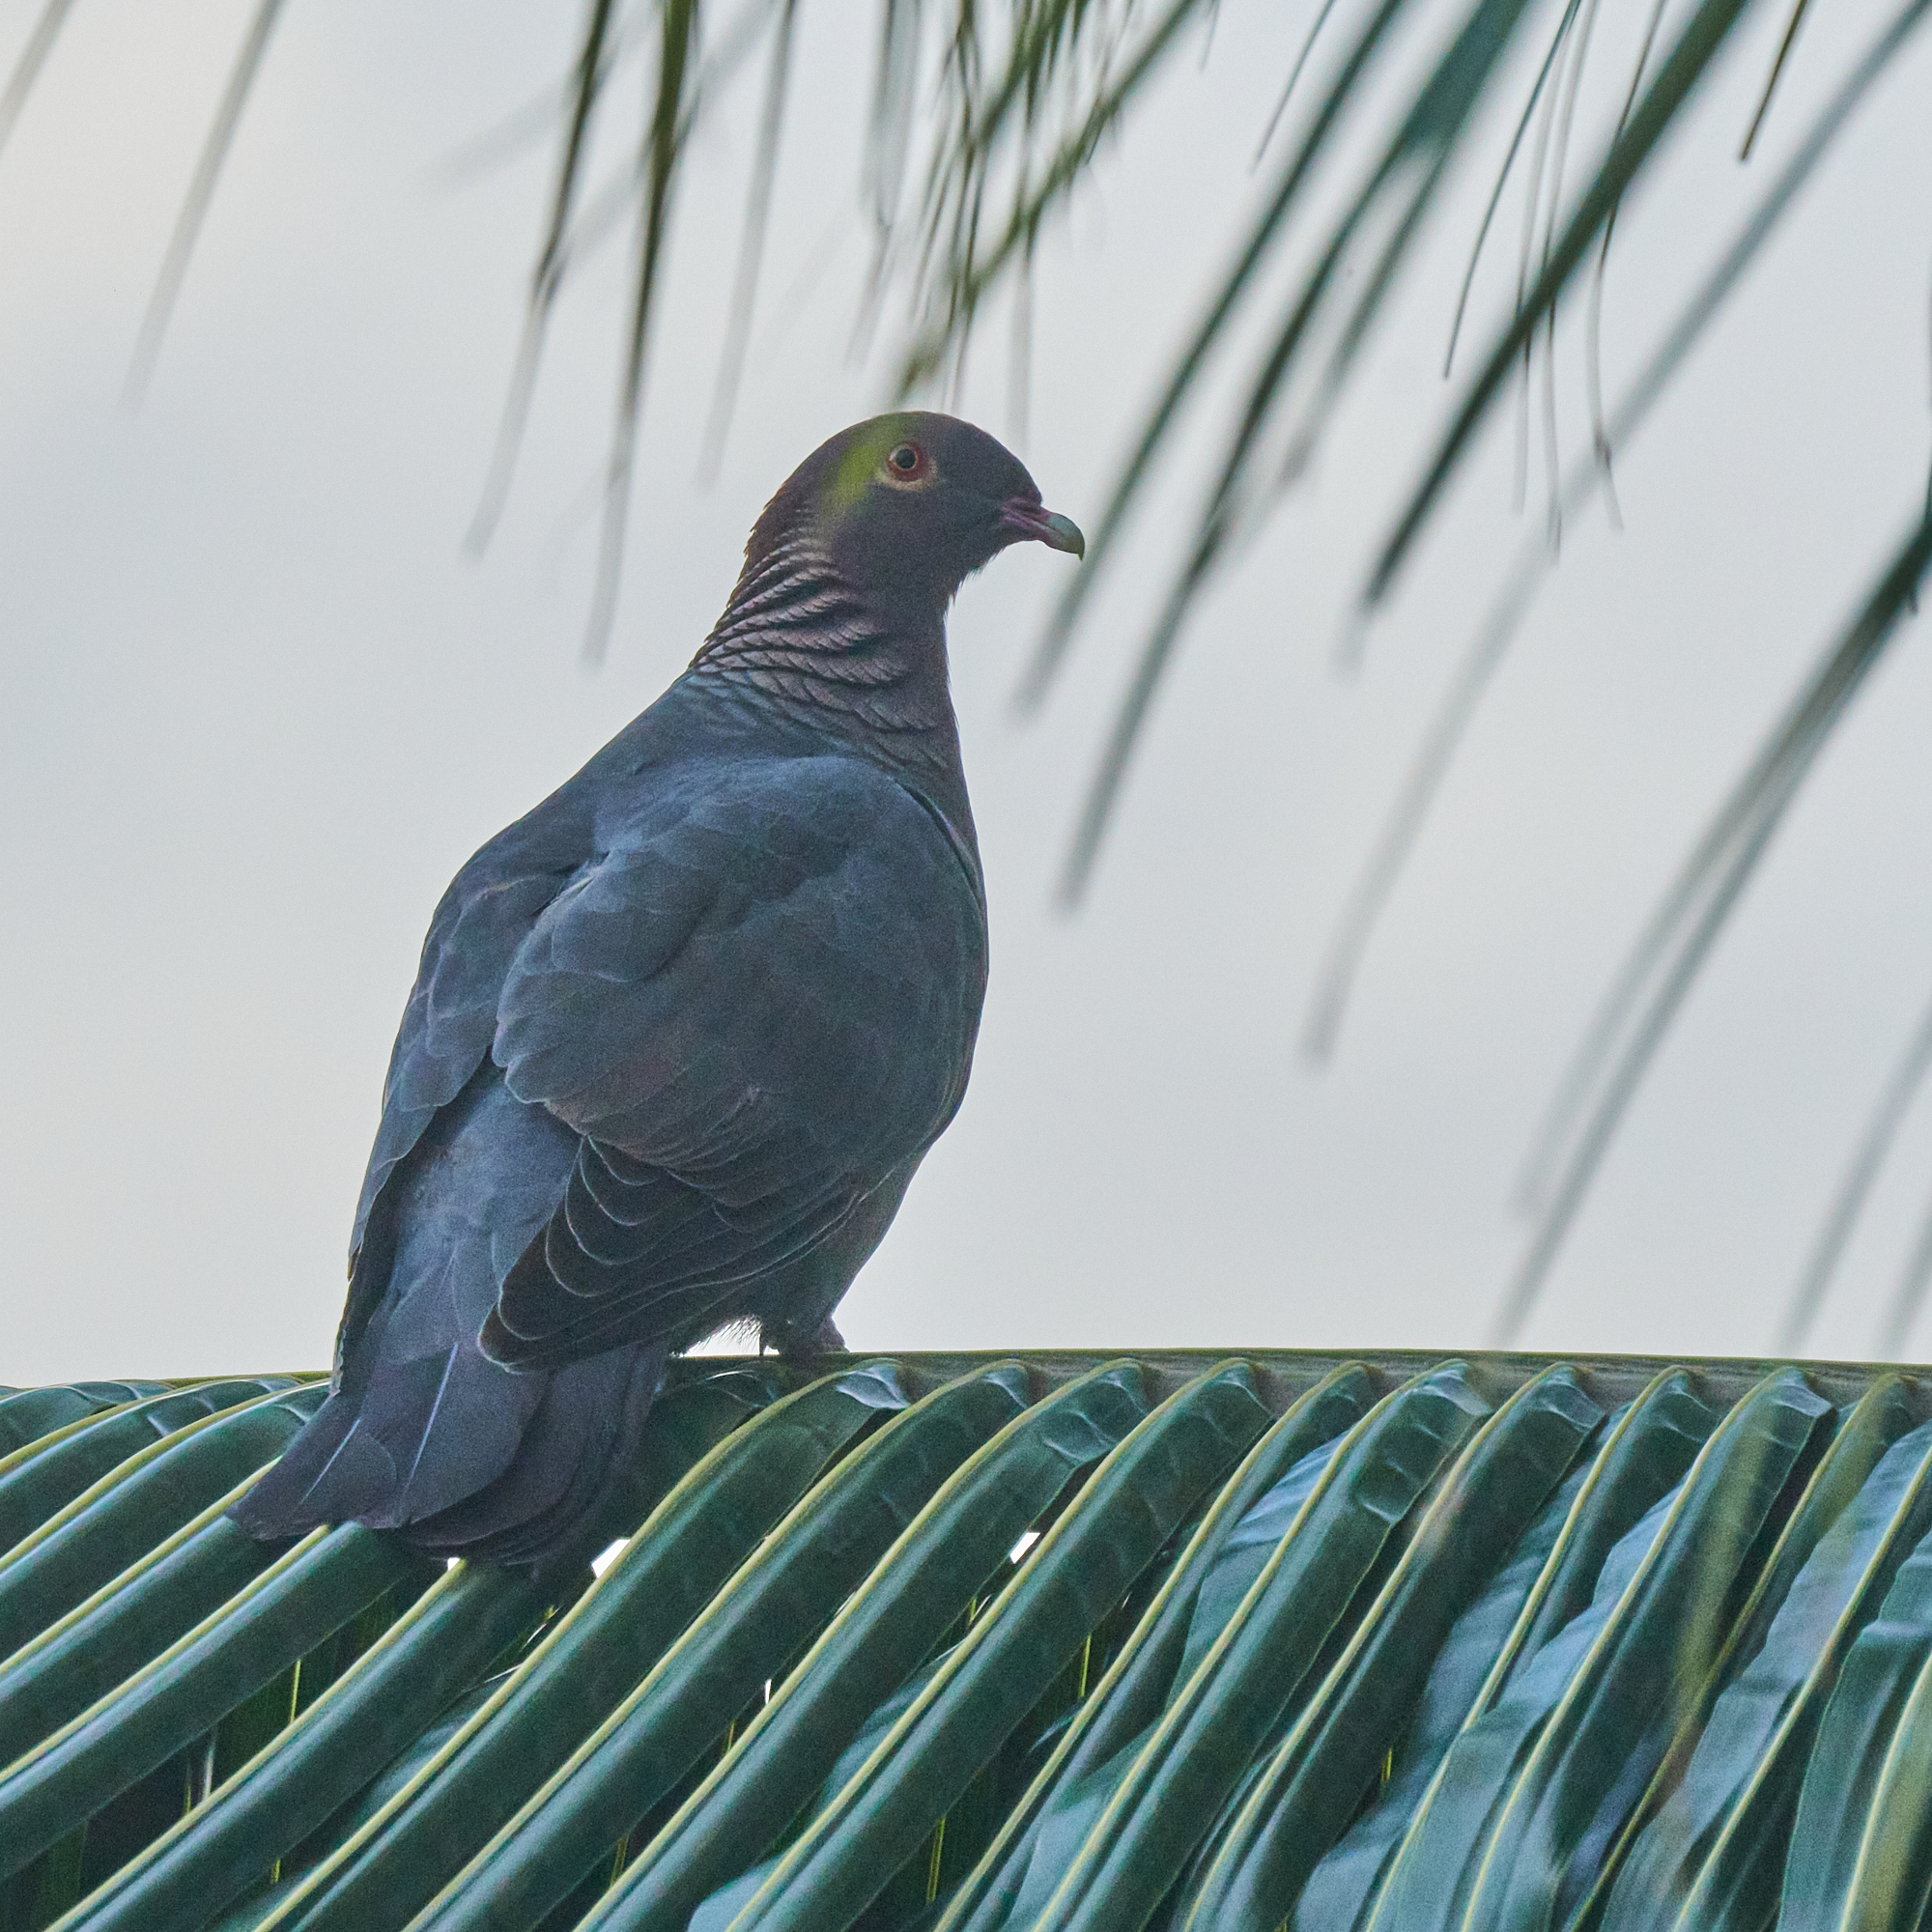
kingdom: Animalia
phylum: Chordata
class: Aves
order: Columbiformes
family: Columbidae
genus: Patagioenas
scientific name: Patagioenas squamosa
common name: Scaly-naped pigeon
